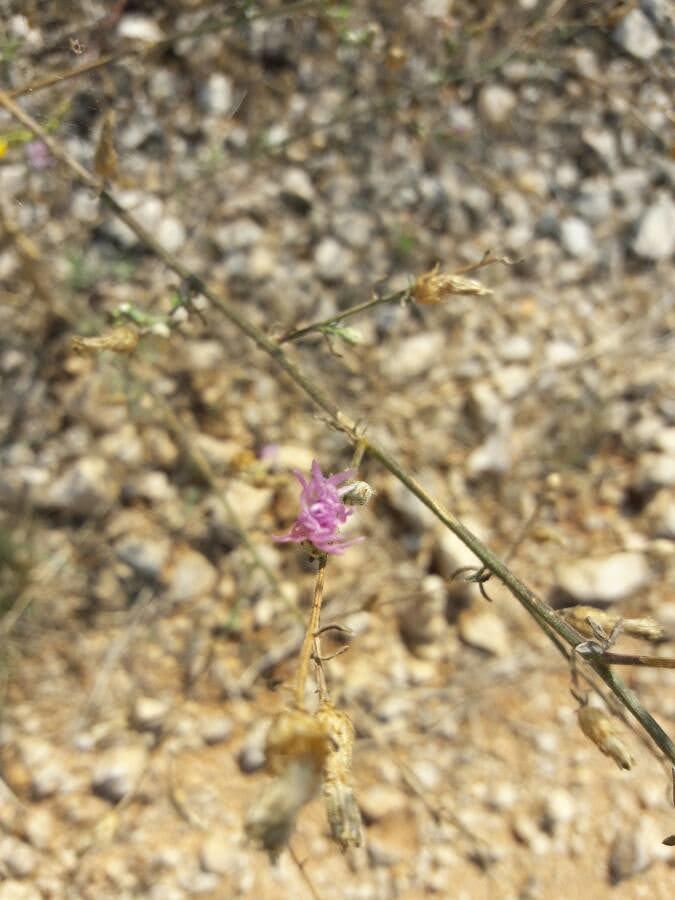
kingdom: Plantae
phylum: Tracheophyta
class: Magnoliopsida
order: Asterales
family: Asteraceae
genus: Centaurea
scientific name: Centaurea paniculata
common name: Jersey knapweed
